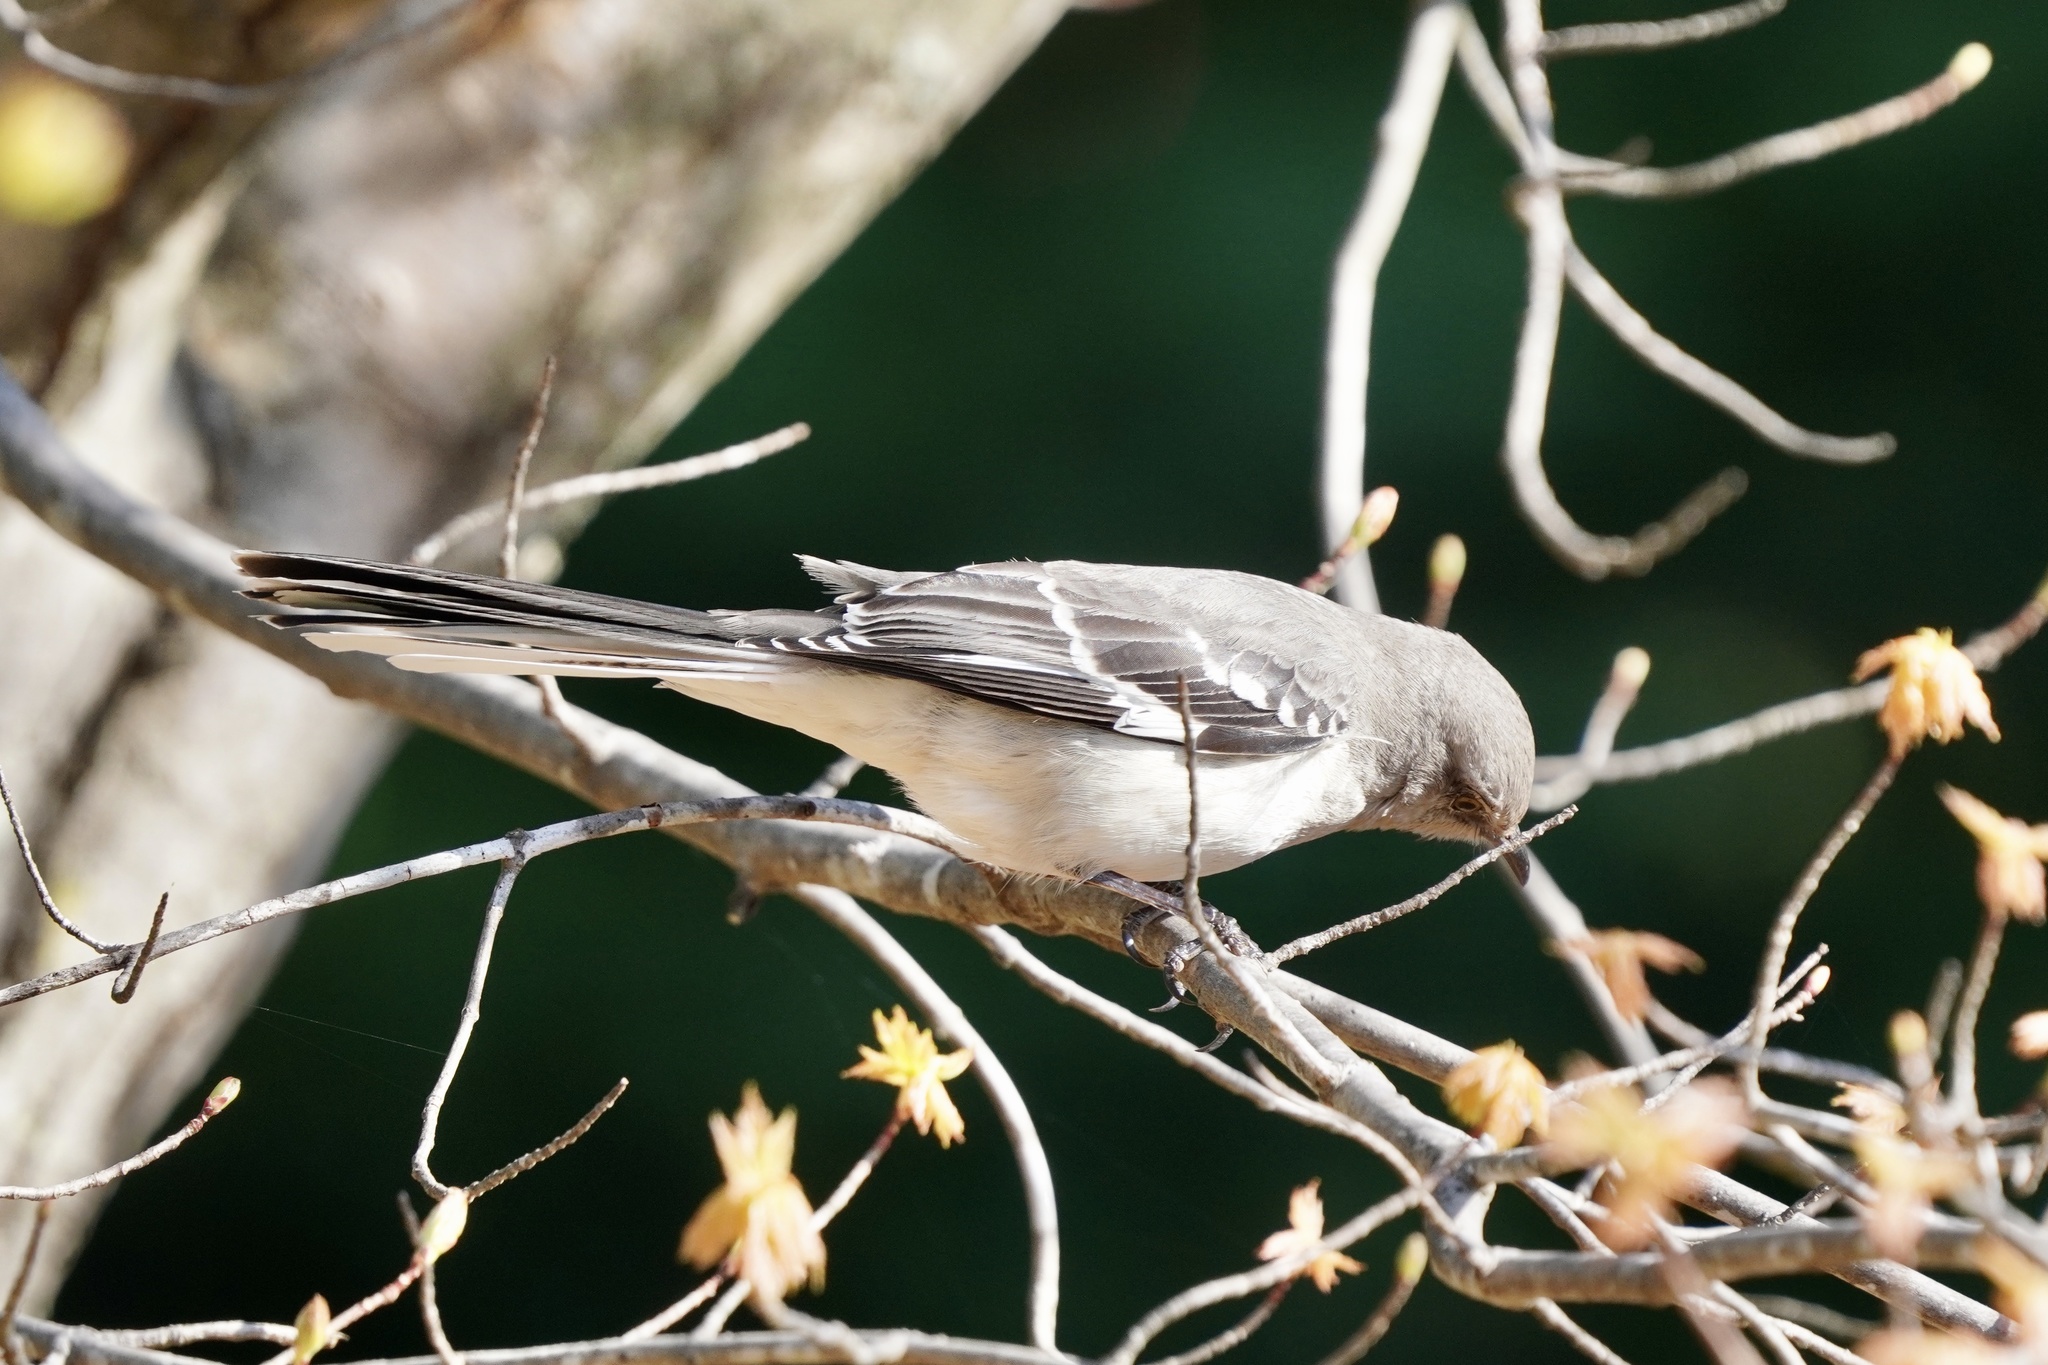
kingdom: Animalia
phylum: Chordata
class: Aves
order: Passeriformes
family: Mimidae
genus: Mimus
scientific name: Mimus polyglottos
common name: Northern mockingbird
